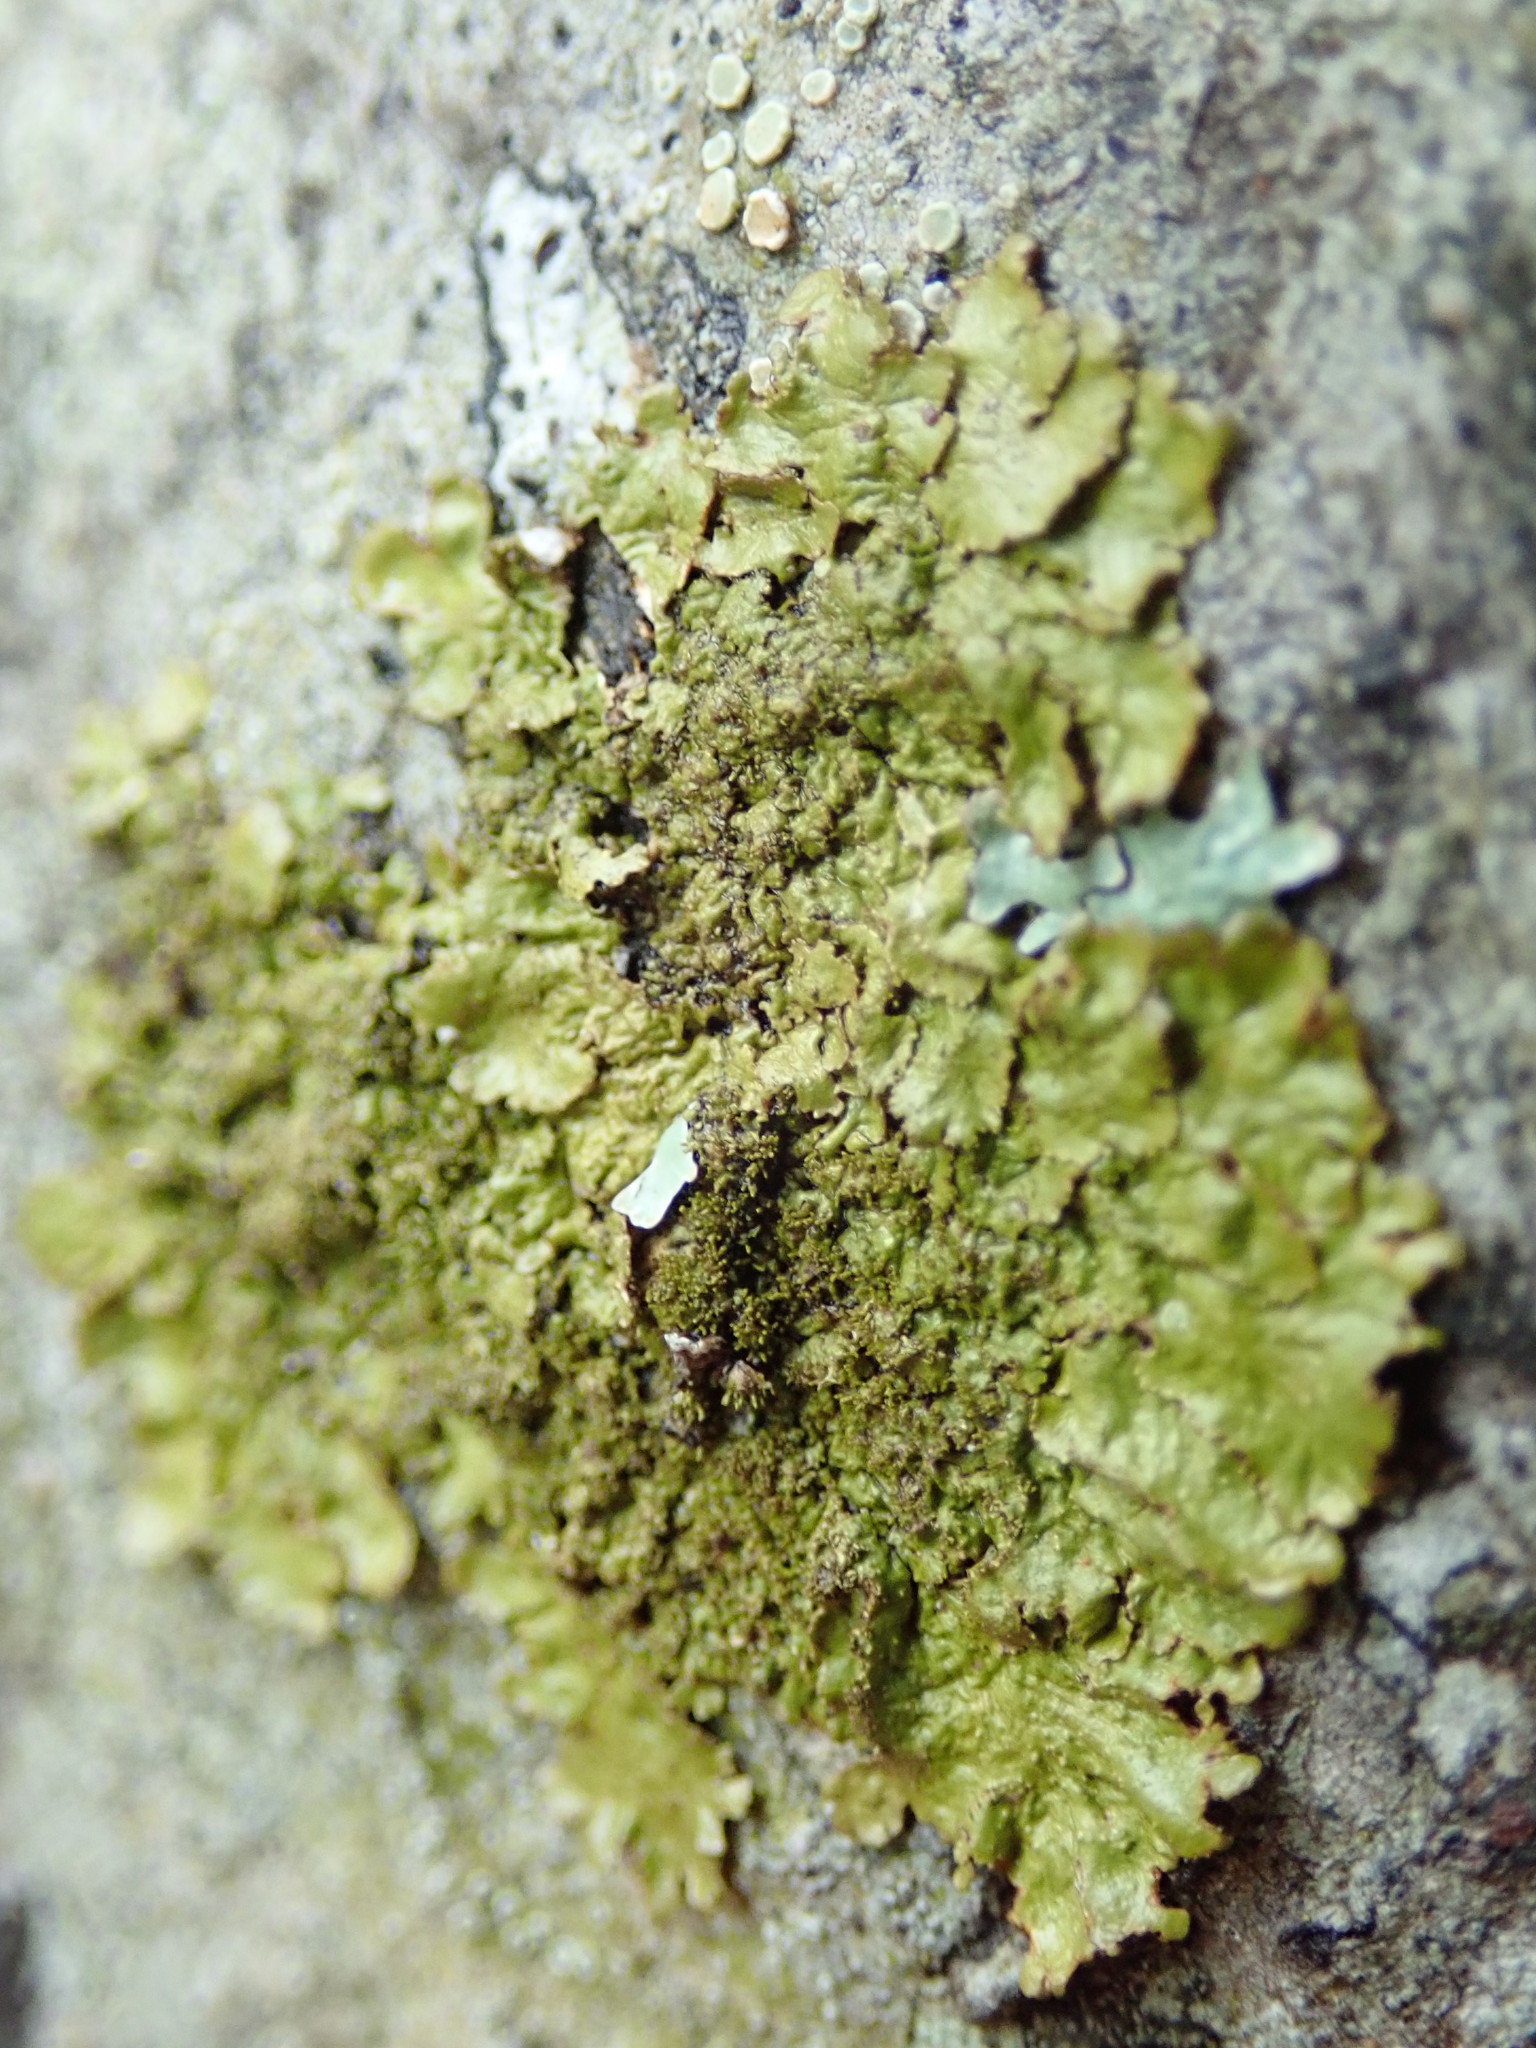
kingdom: Fungi
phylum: Ascomycota
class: Lecanoromycetes
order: Lecanorales
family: Parmeliaceae
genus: Melanohalea
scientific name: Melanohalea exasperatula
